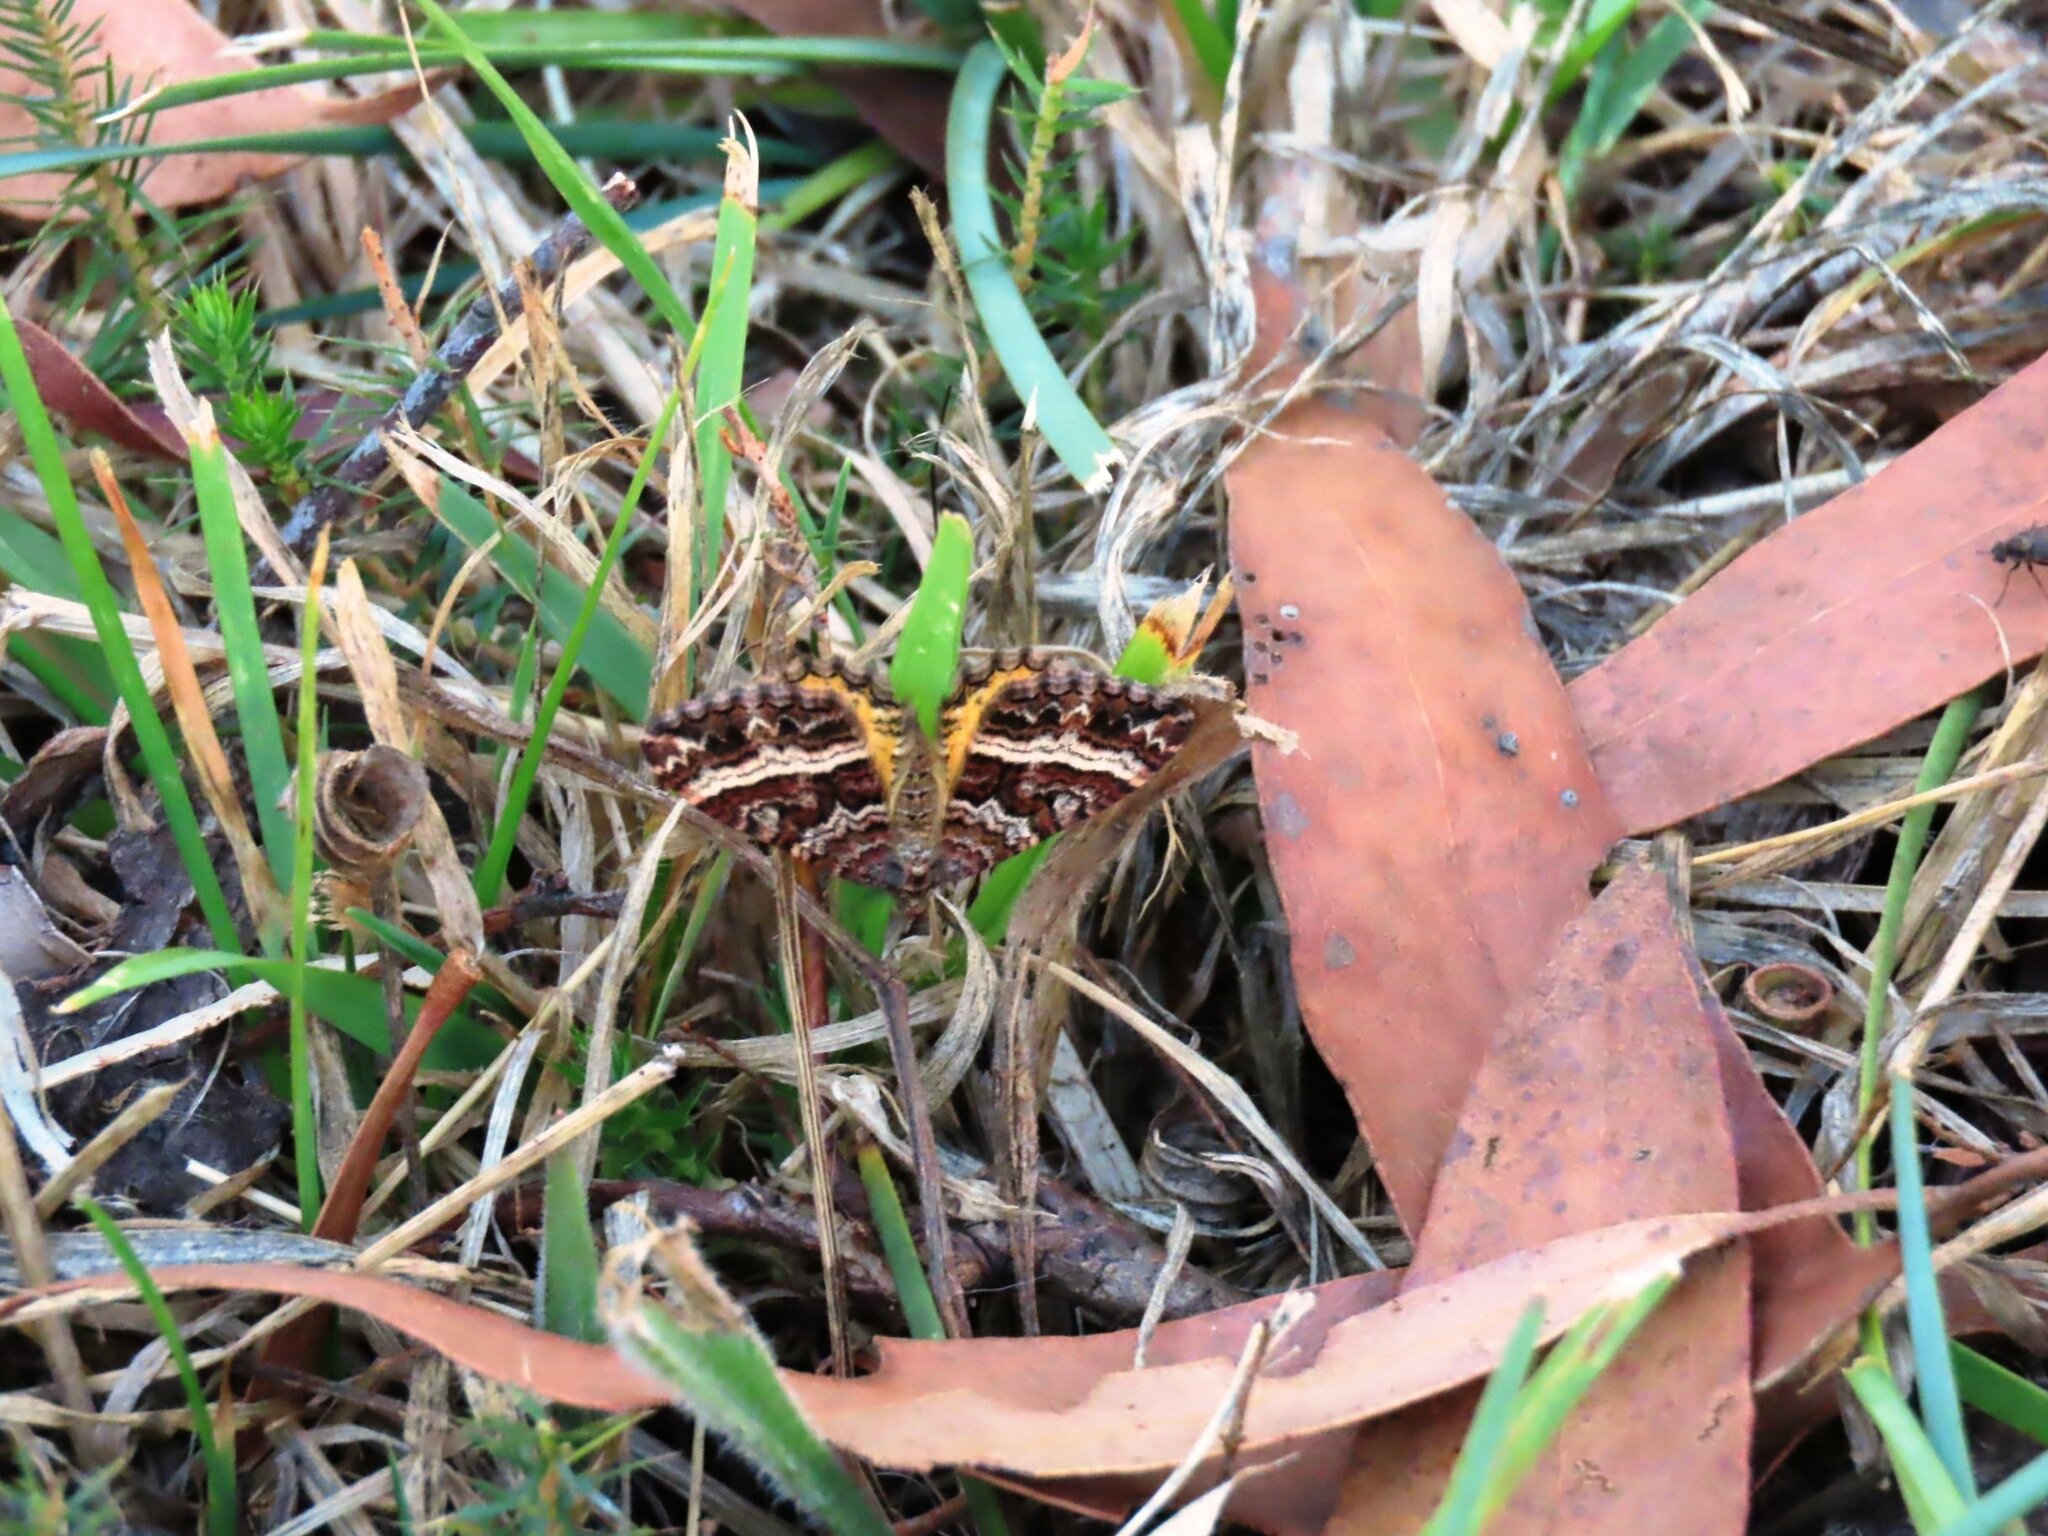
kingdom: Animalia
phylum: Arthropoda
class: Insecta
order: Lepidoptera
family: Geometridae
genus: Chrysolarentia
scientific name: Chrysolarentia vicissata
